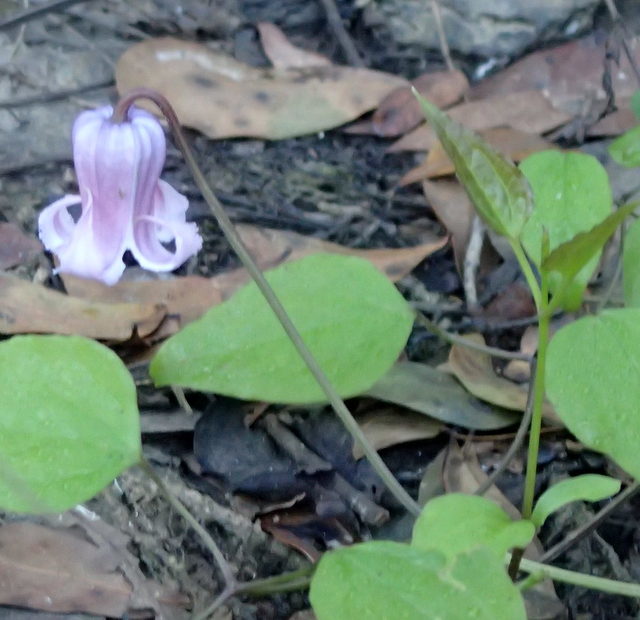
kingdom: Plantae
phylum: Tracheophyta
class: Magnoliopsida
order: Ranunculales
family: Ranunculaceae
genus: Clematis
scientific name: Clematis crispa
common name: Curly clematis
